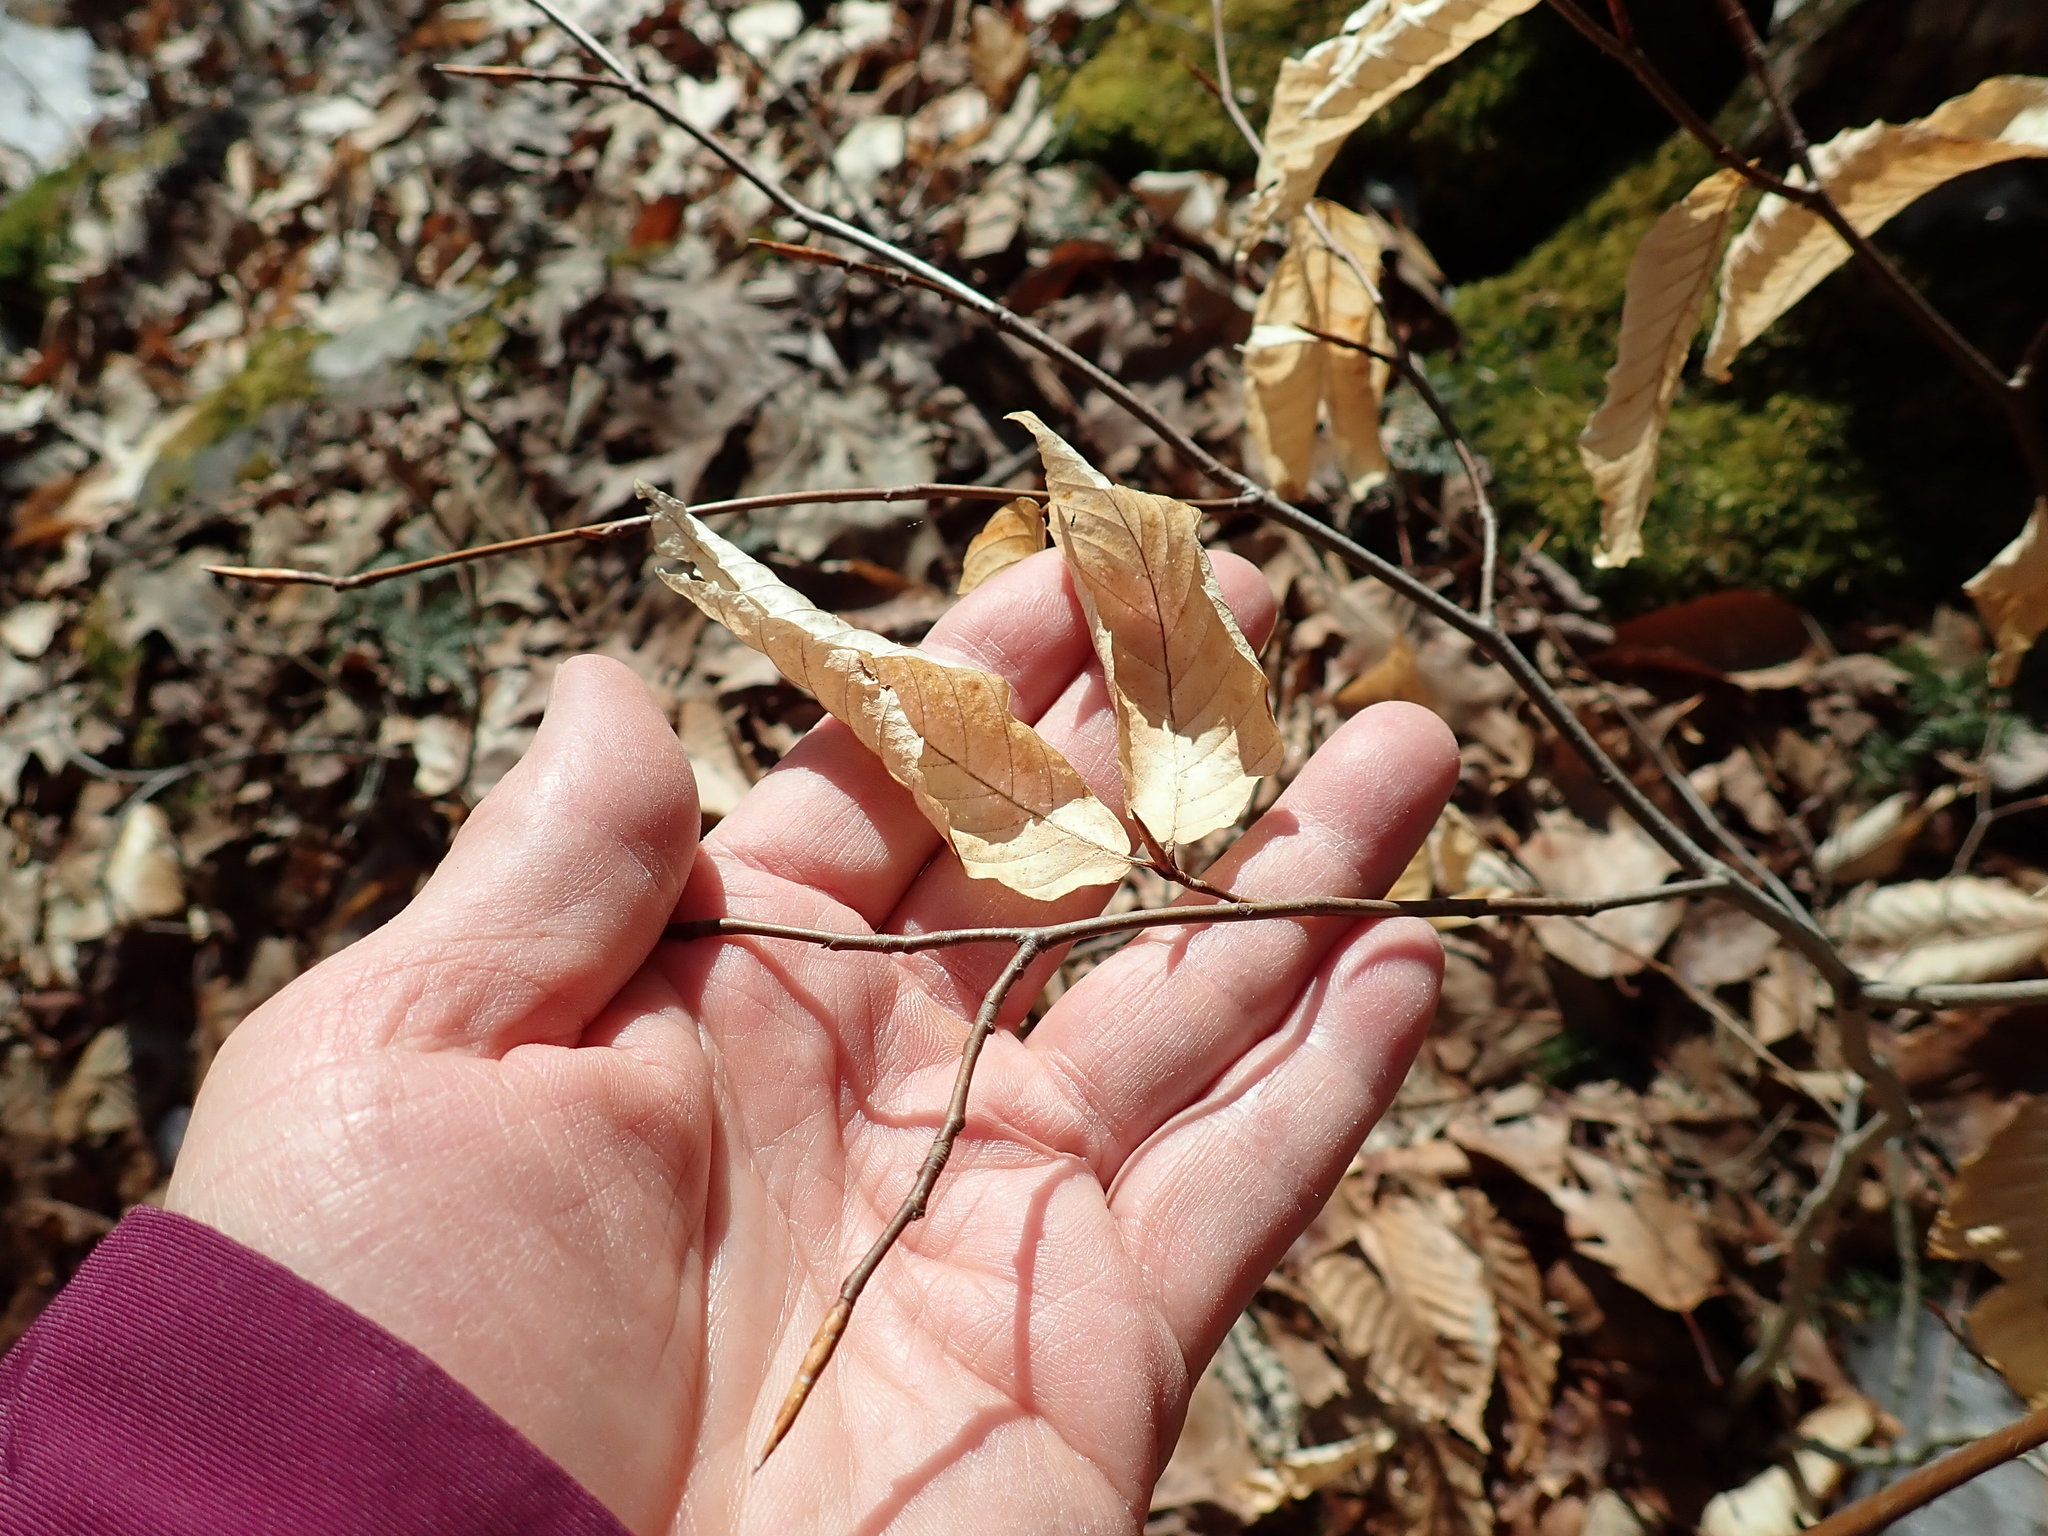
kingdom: Plantae
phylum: Tracheophyta
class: Magnoliopsida
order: Fagales
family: Fagaceae
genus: Fagus
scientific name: Fagus grandifolia
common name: American beech
